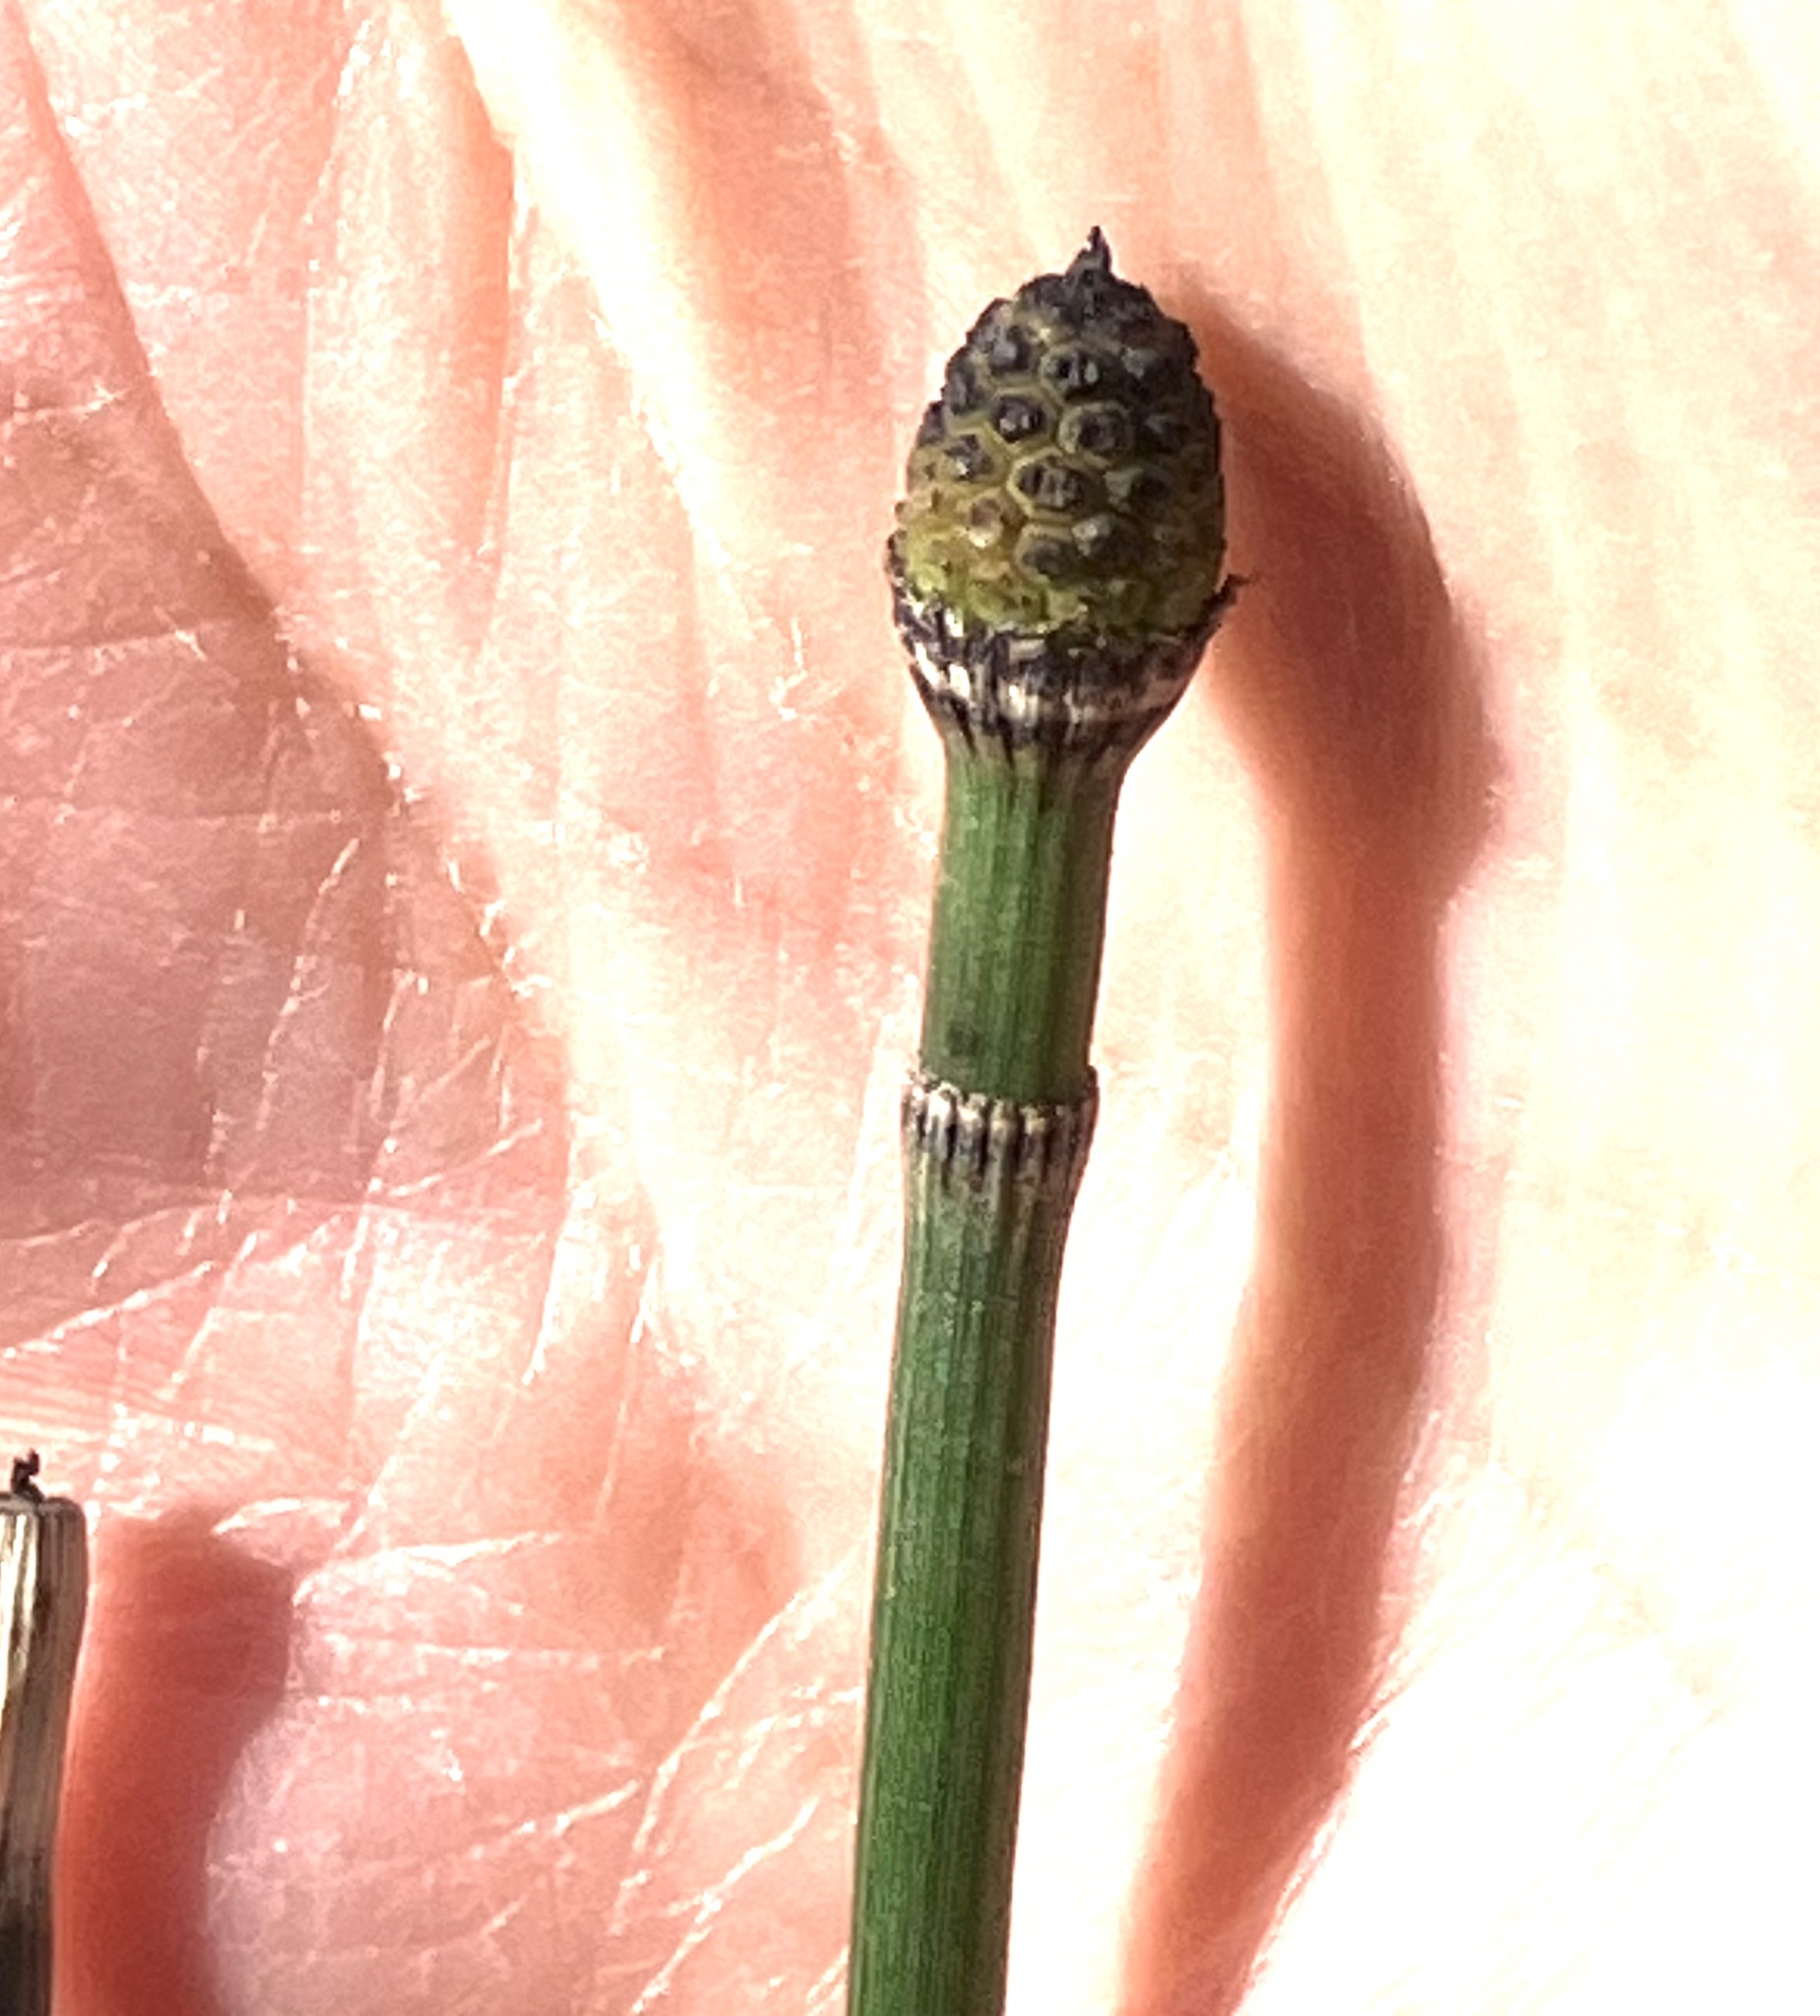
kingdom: Plantae
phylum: Tracheophyta
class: Polypodiopsida
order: Equisetales
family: Equisetaceae
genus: Equisetum
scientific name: Equisetum hyemale
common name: Rough horsetail
